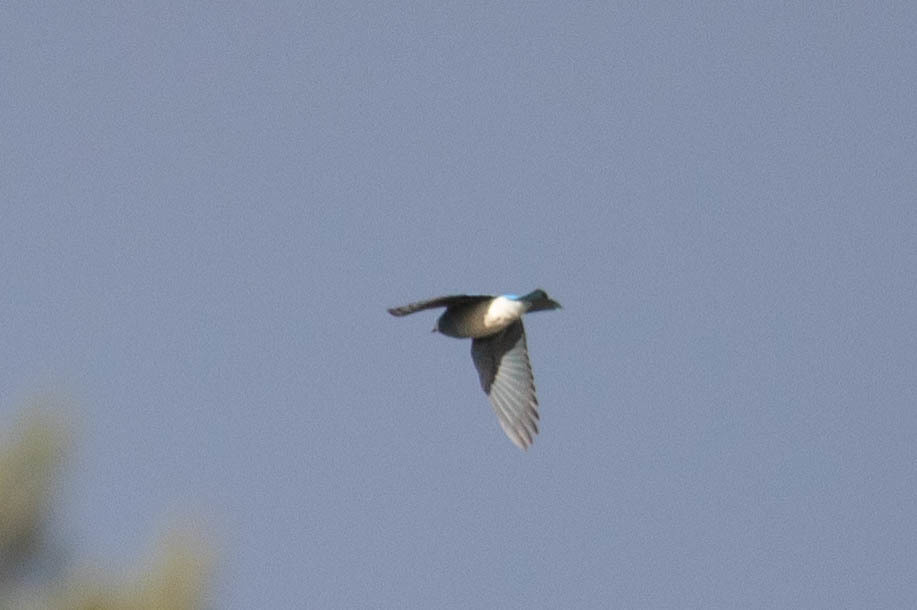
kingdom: Animalia
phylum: Chordata
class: Aves
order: Passeriformes
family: Turdidae
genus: Sialia
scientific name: Sialia currucoides
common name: Mountain bluebird
